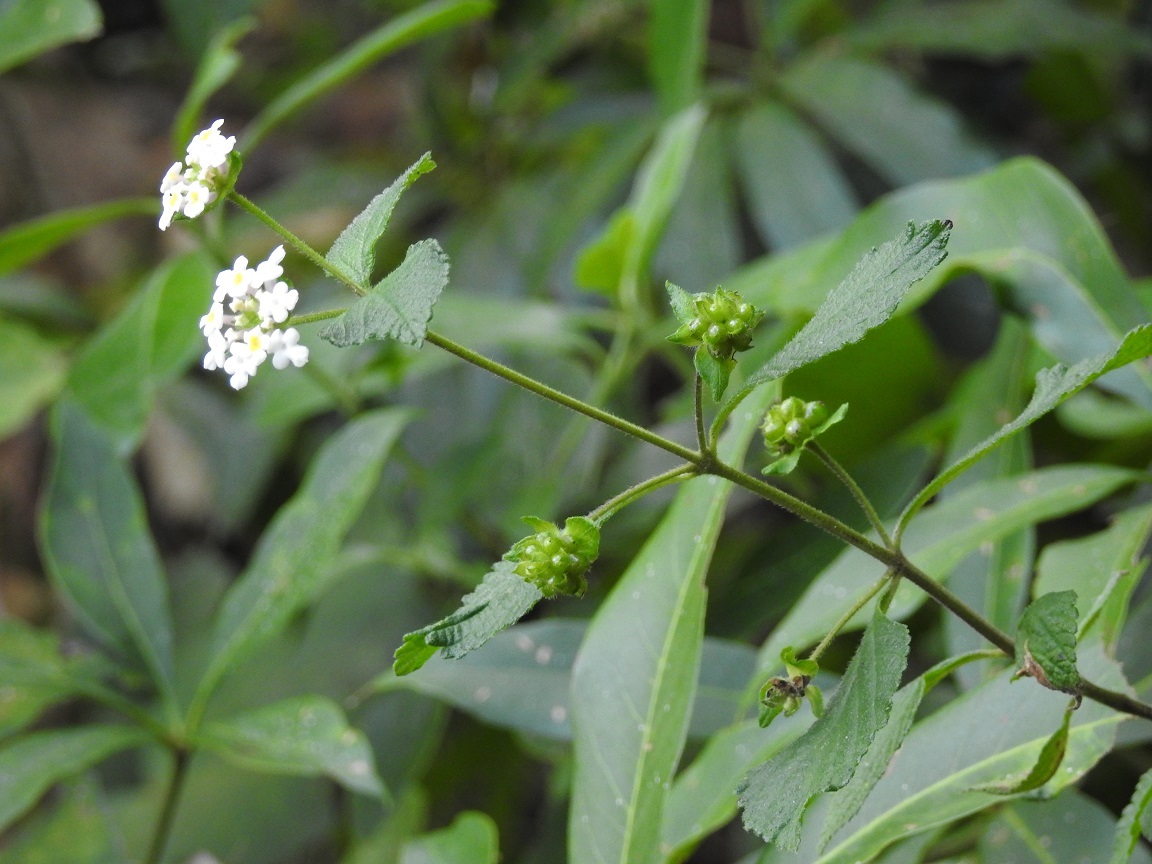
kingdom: Plantae
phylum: Tracheophyta
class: Magnoliopsida
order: Lamiales
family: Verbenaceae
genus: Lantana
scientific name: Lantana hirta
